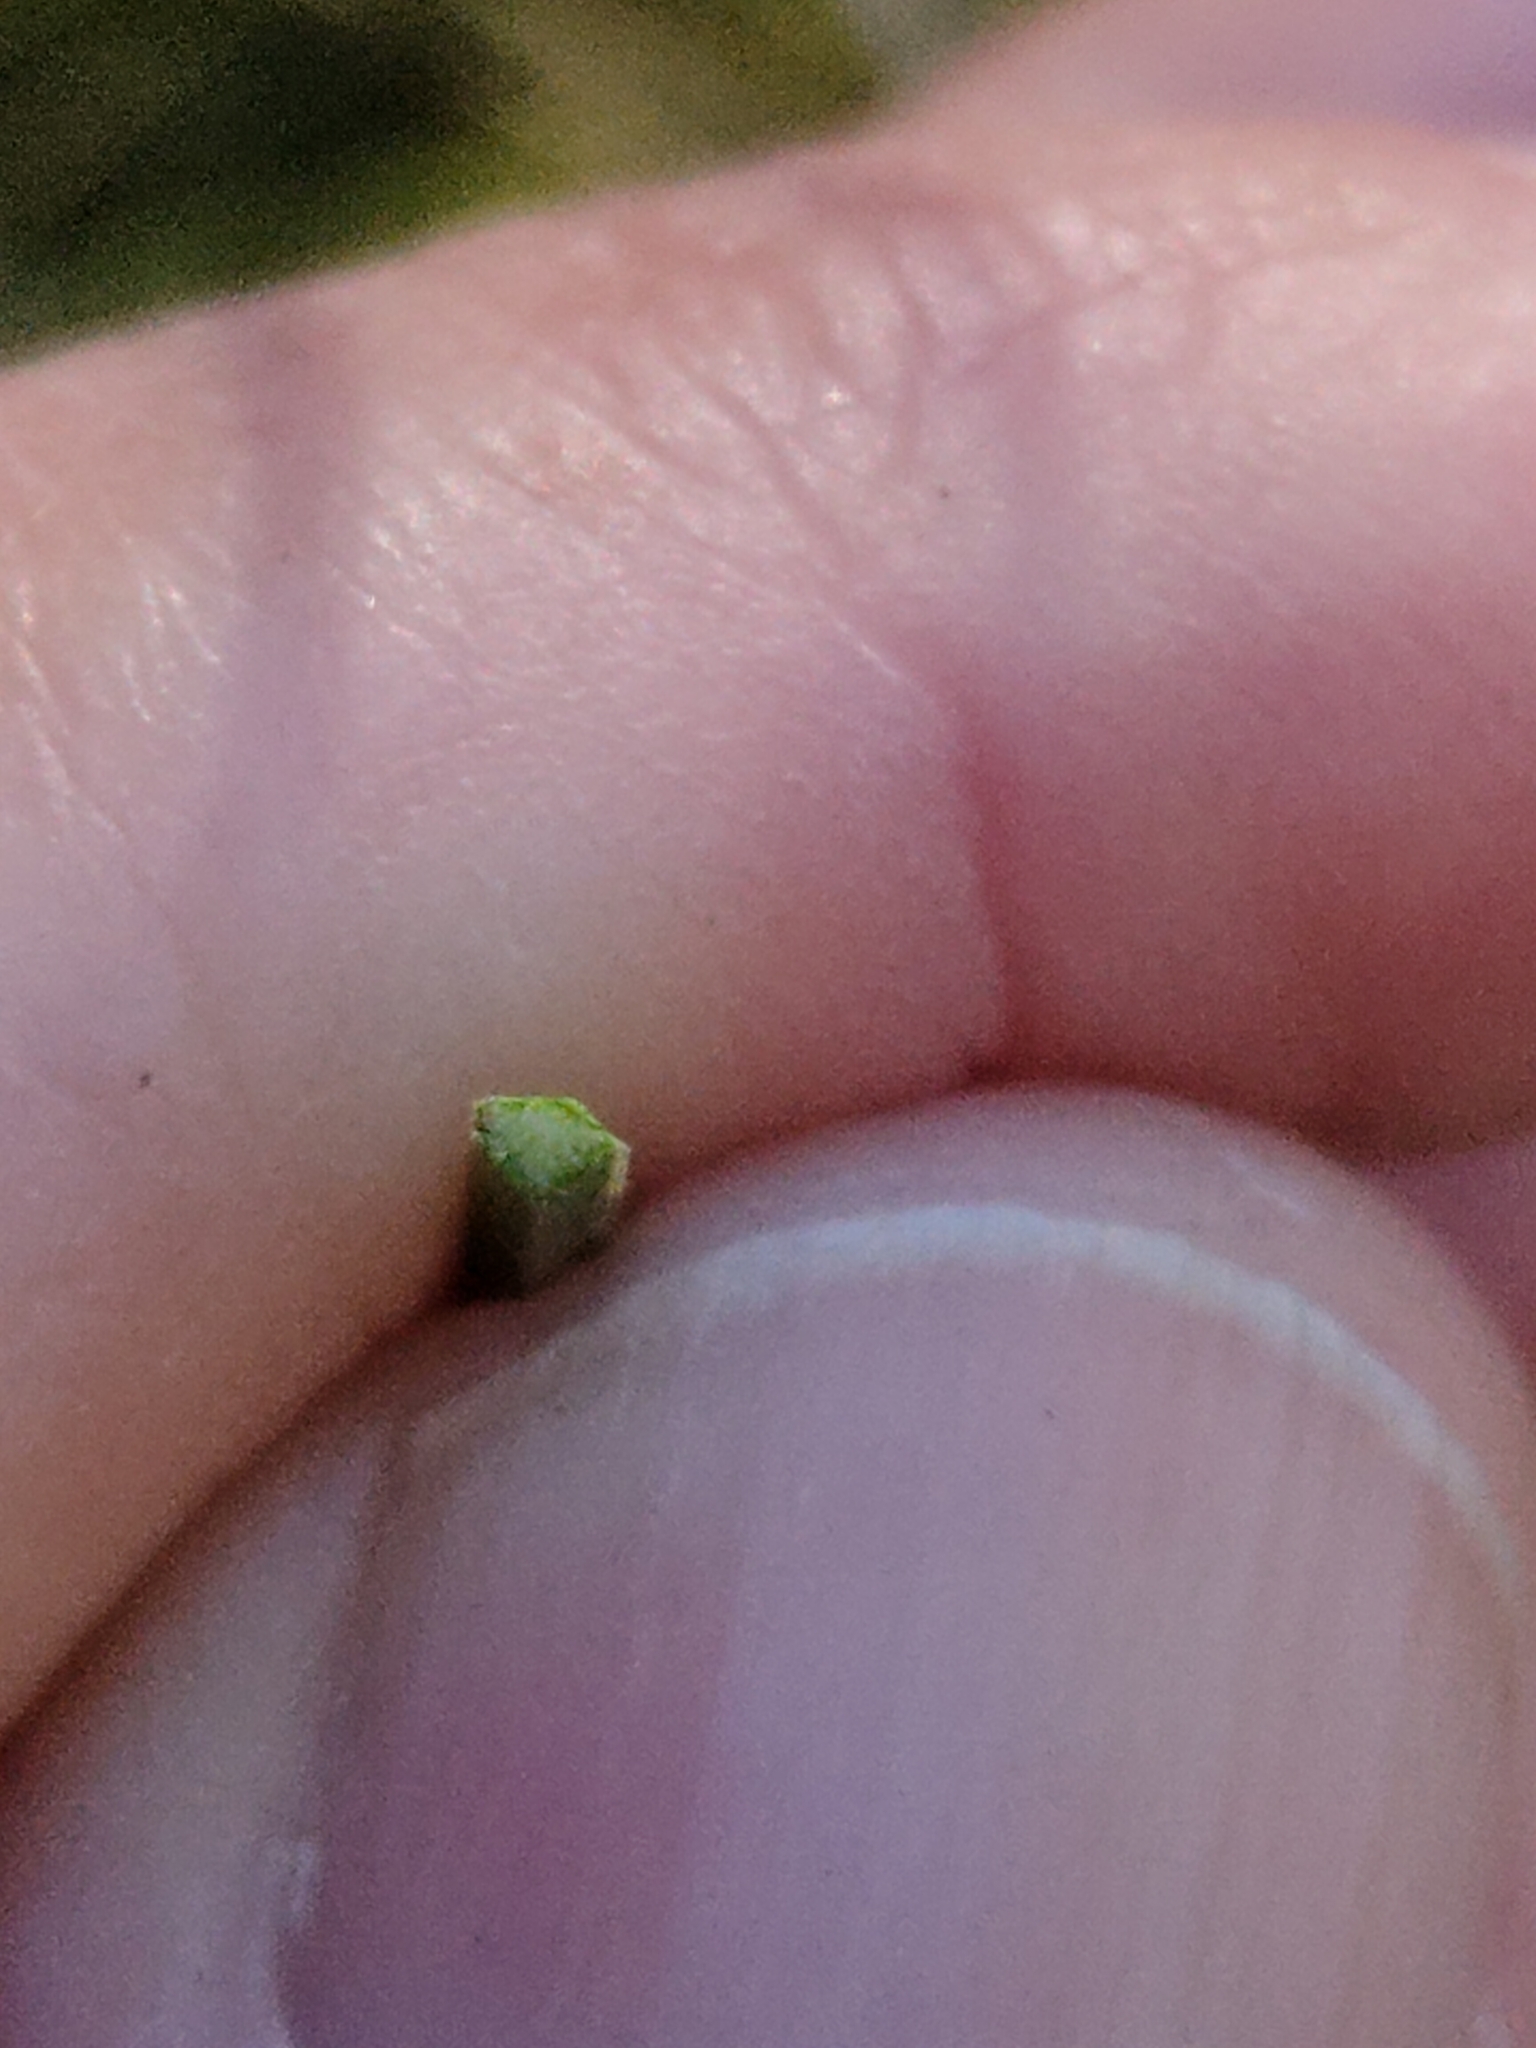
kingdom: Plantae
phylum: Tracheophyta
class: Liliopsida
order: Asparagales
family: Asphodelaceae
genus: Xanthorrhoea
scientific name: Xanthorrhoea fulva
